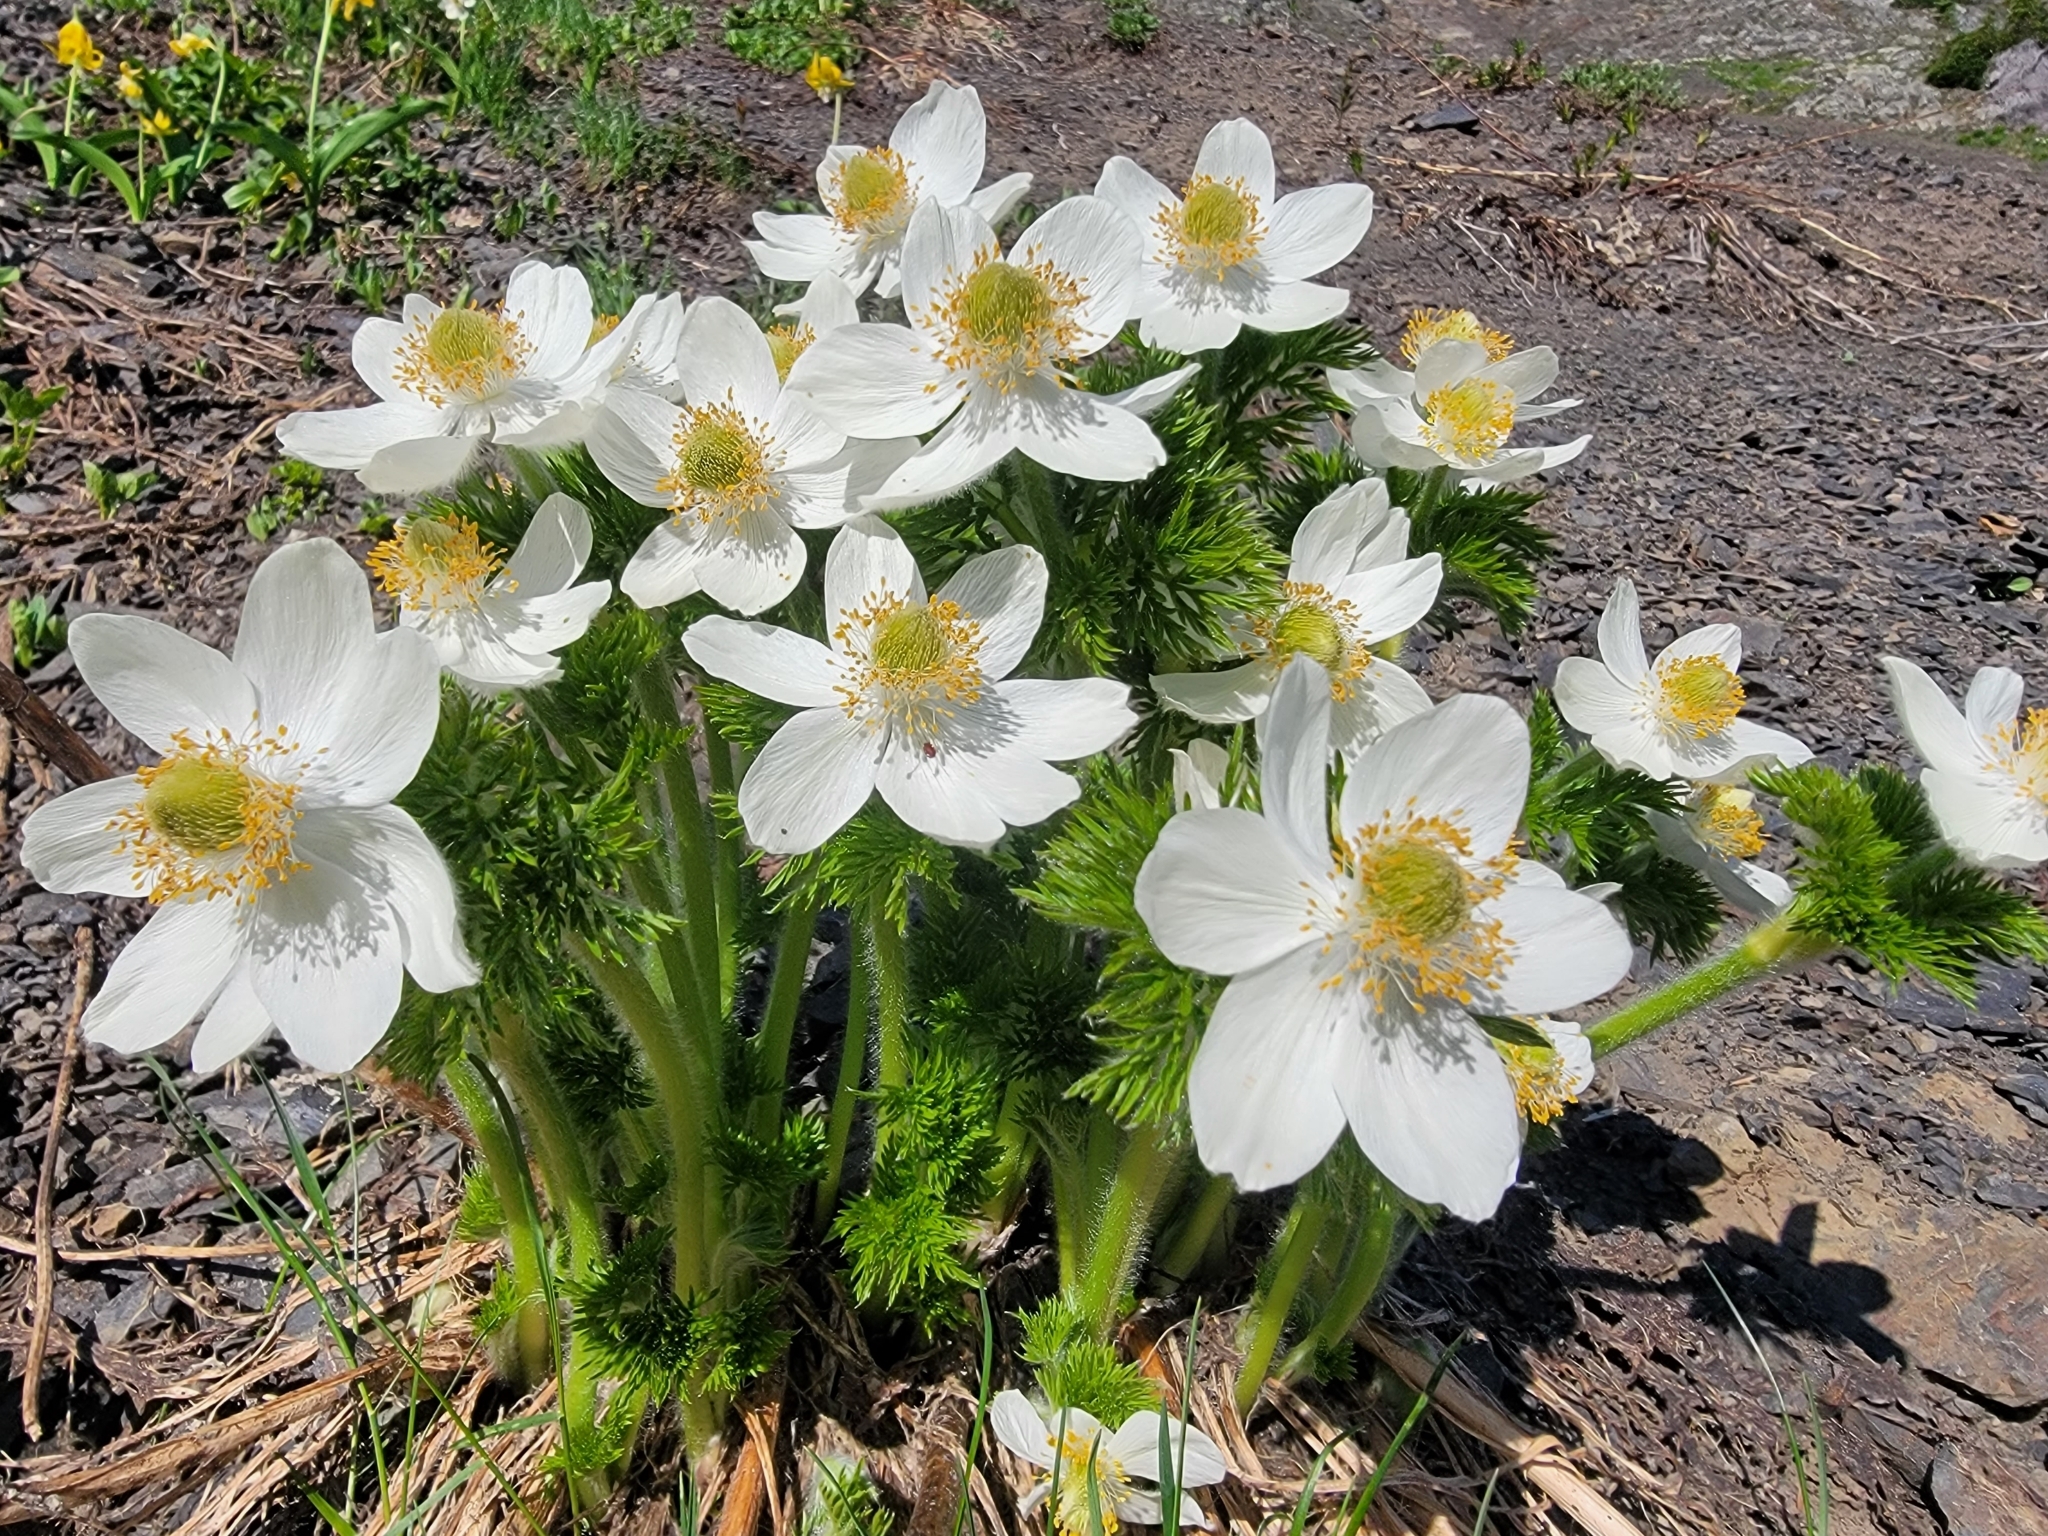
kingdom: Plantae
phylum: Tracheophyta
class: Magnoliopsida
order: Ranunculales
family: Ranunculaceae
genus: Pulsatilla
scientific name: Pulsatilla occidentalis
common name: Mountain pasqueflower
